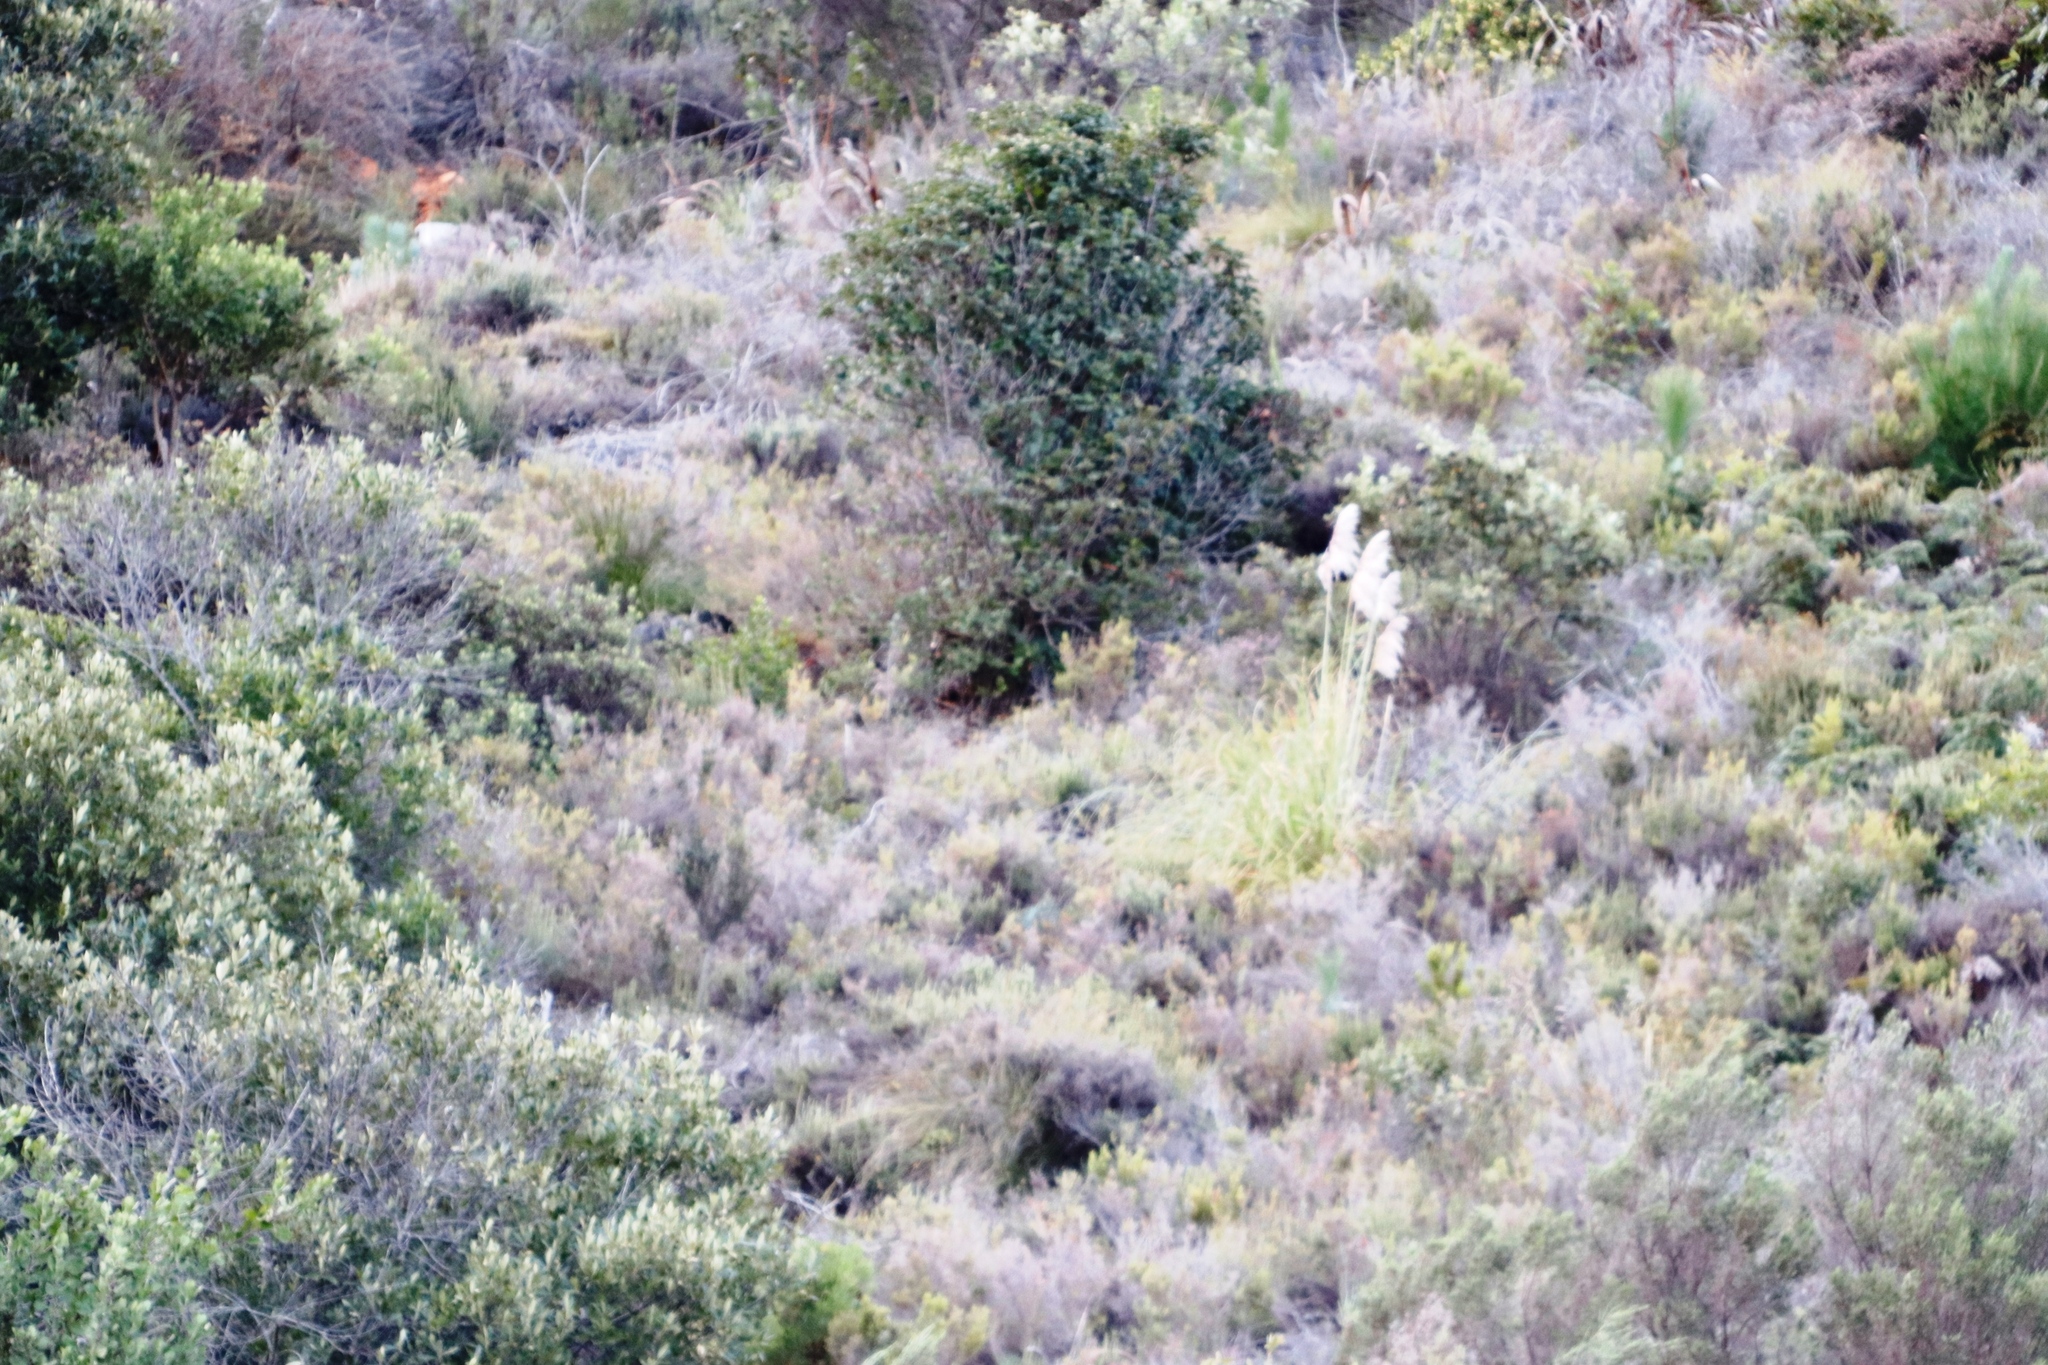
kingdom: Plantae
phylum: Tracheophyta
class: Liliopsida
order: Poales
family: Poaceae
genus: Cortaderia
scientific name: Cortaderia selloana
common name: Uruguayan pampas grass
